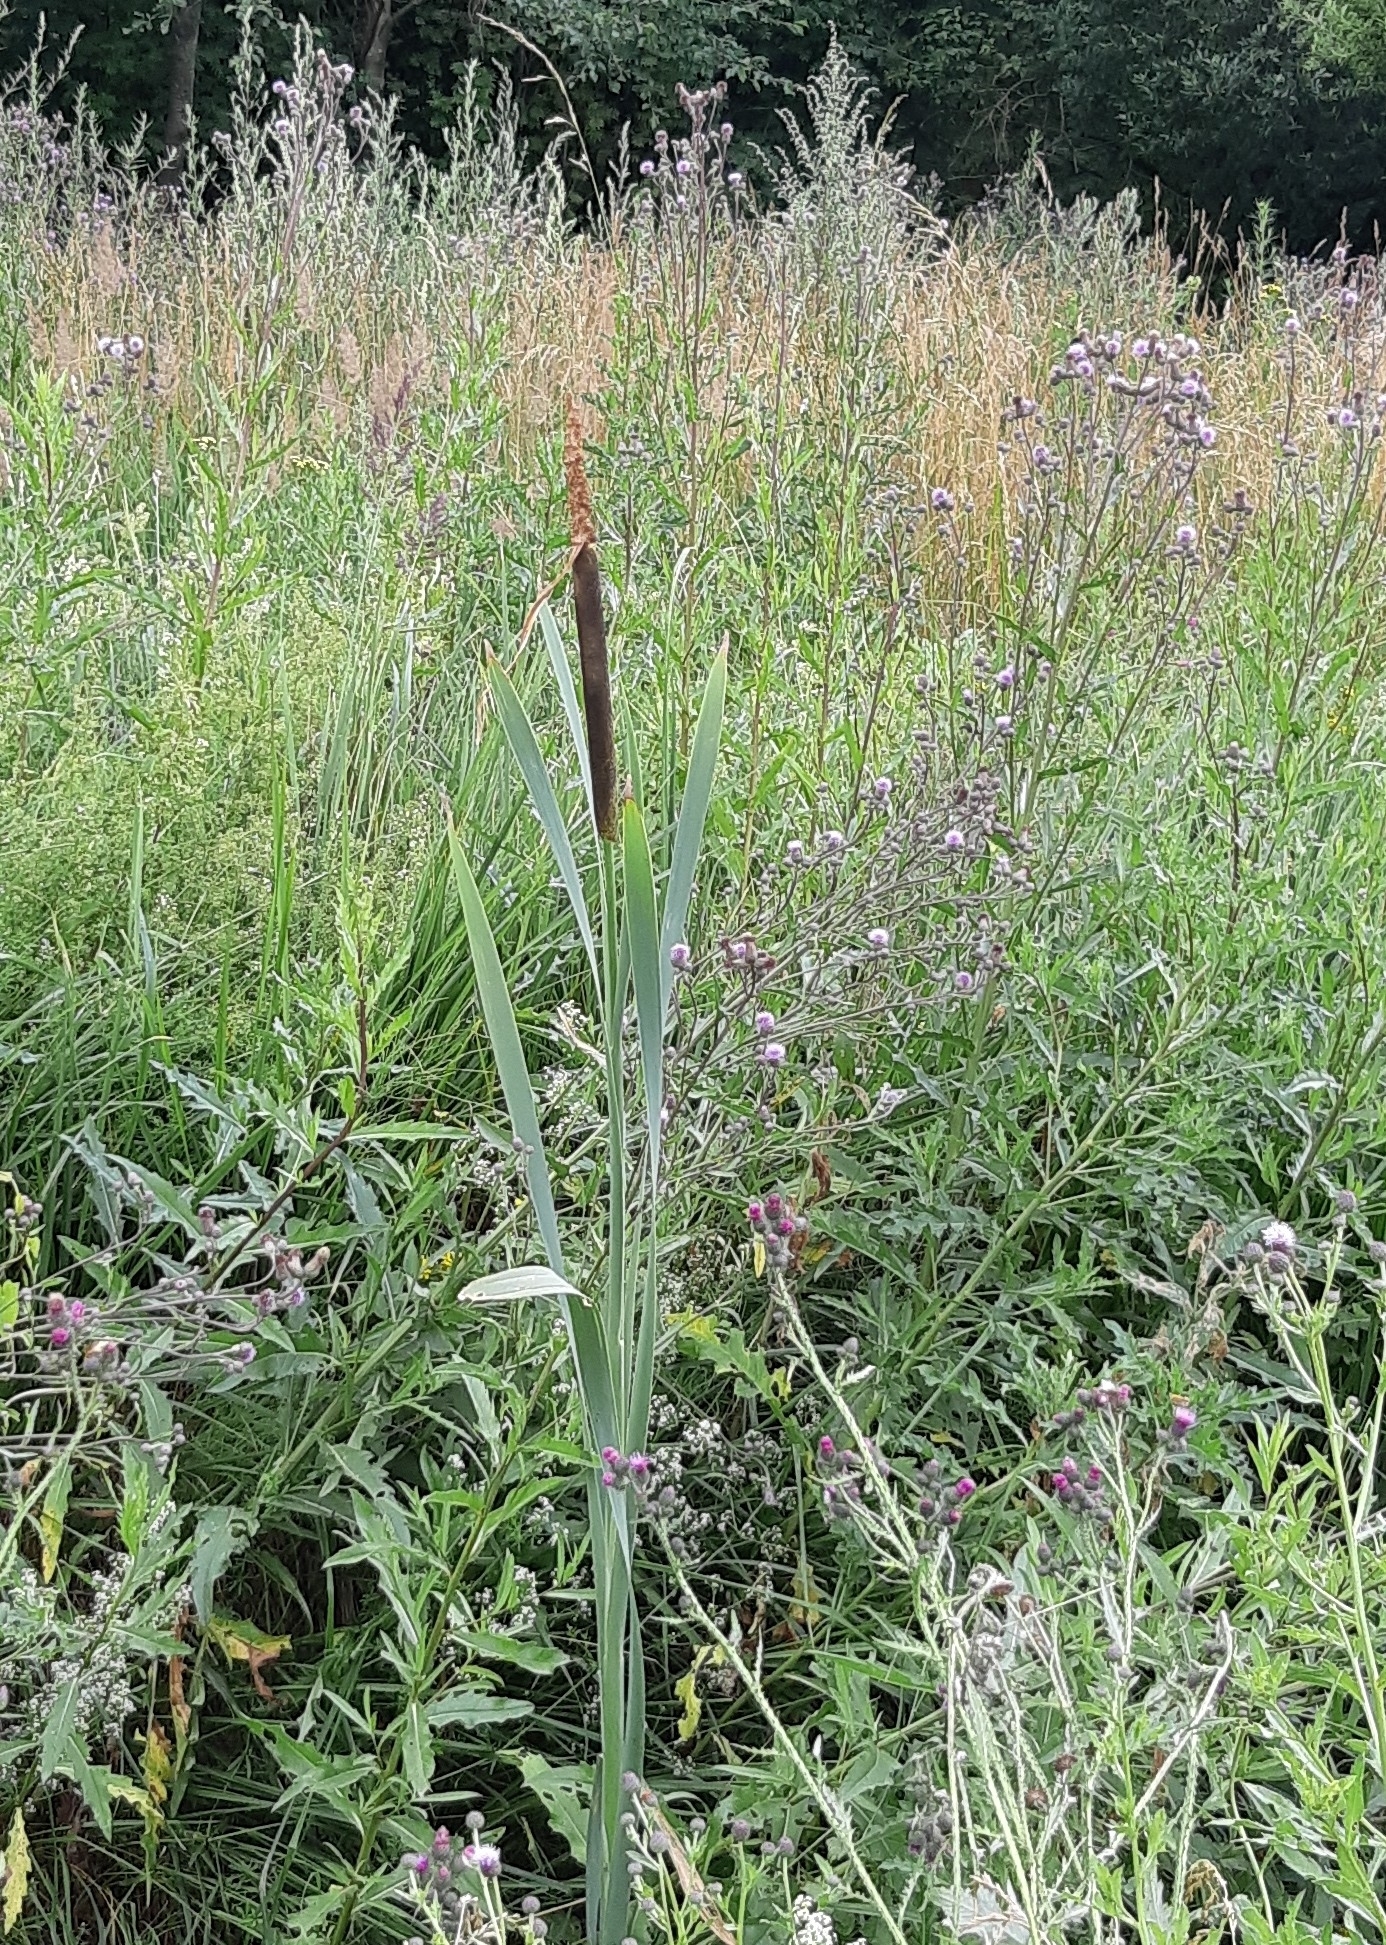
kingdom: Plantae
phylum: Tracheophyta
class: Liliopsida
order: Poales
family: Typhaceae
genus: Typha
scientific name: Typha latifolia
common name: Broadleaf cattail
